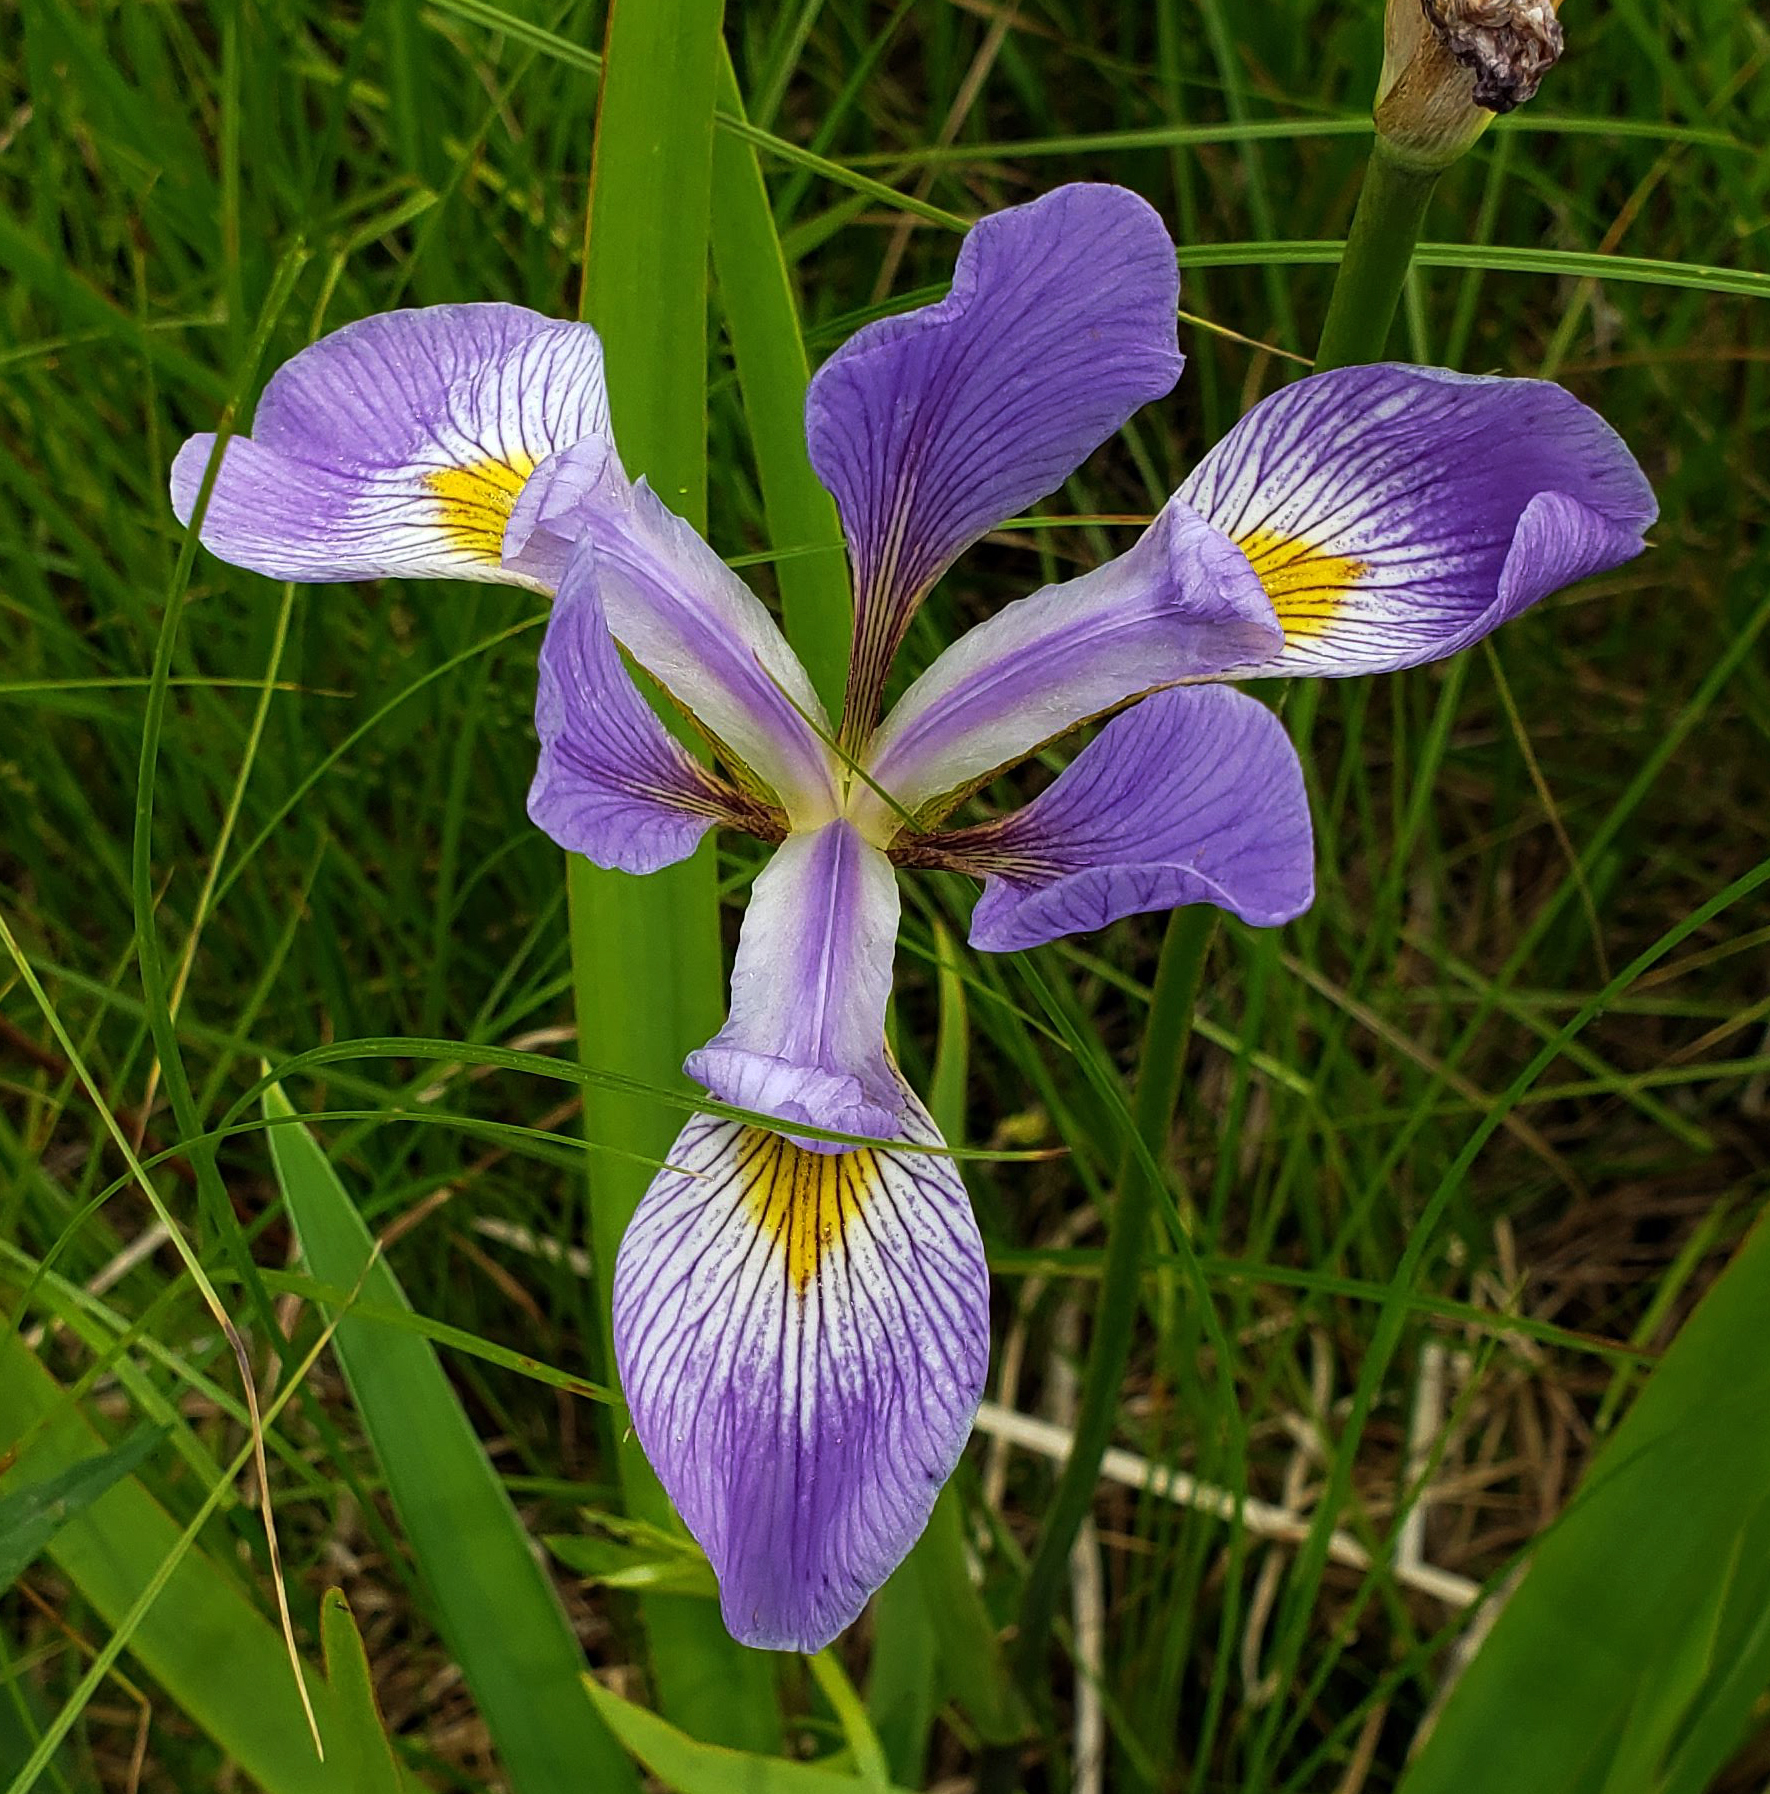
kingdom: Plantae
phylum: Tracheophyta
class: Liliopsida
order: Asparagales
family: Iridaceae
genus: Iris
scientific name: Iris virginica
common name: Southern blue flag
